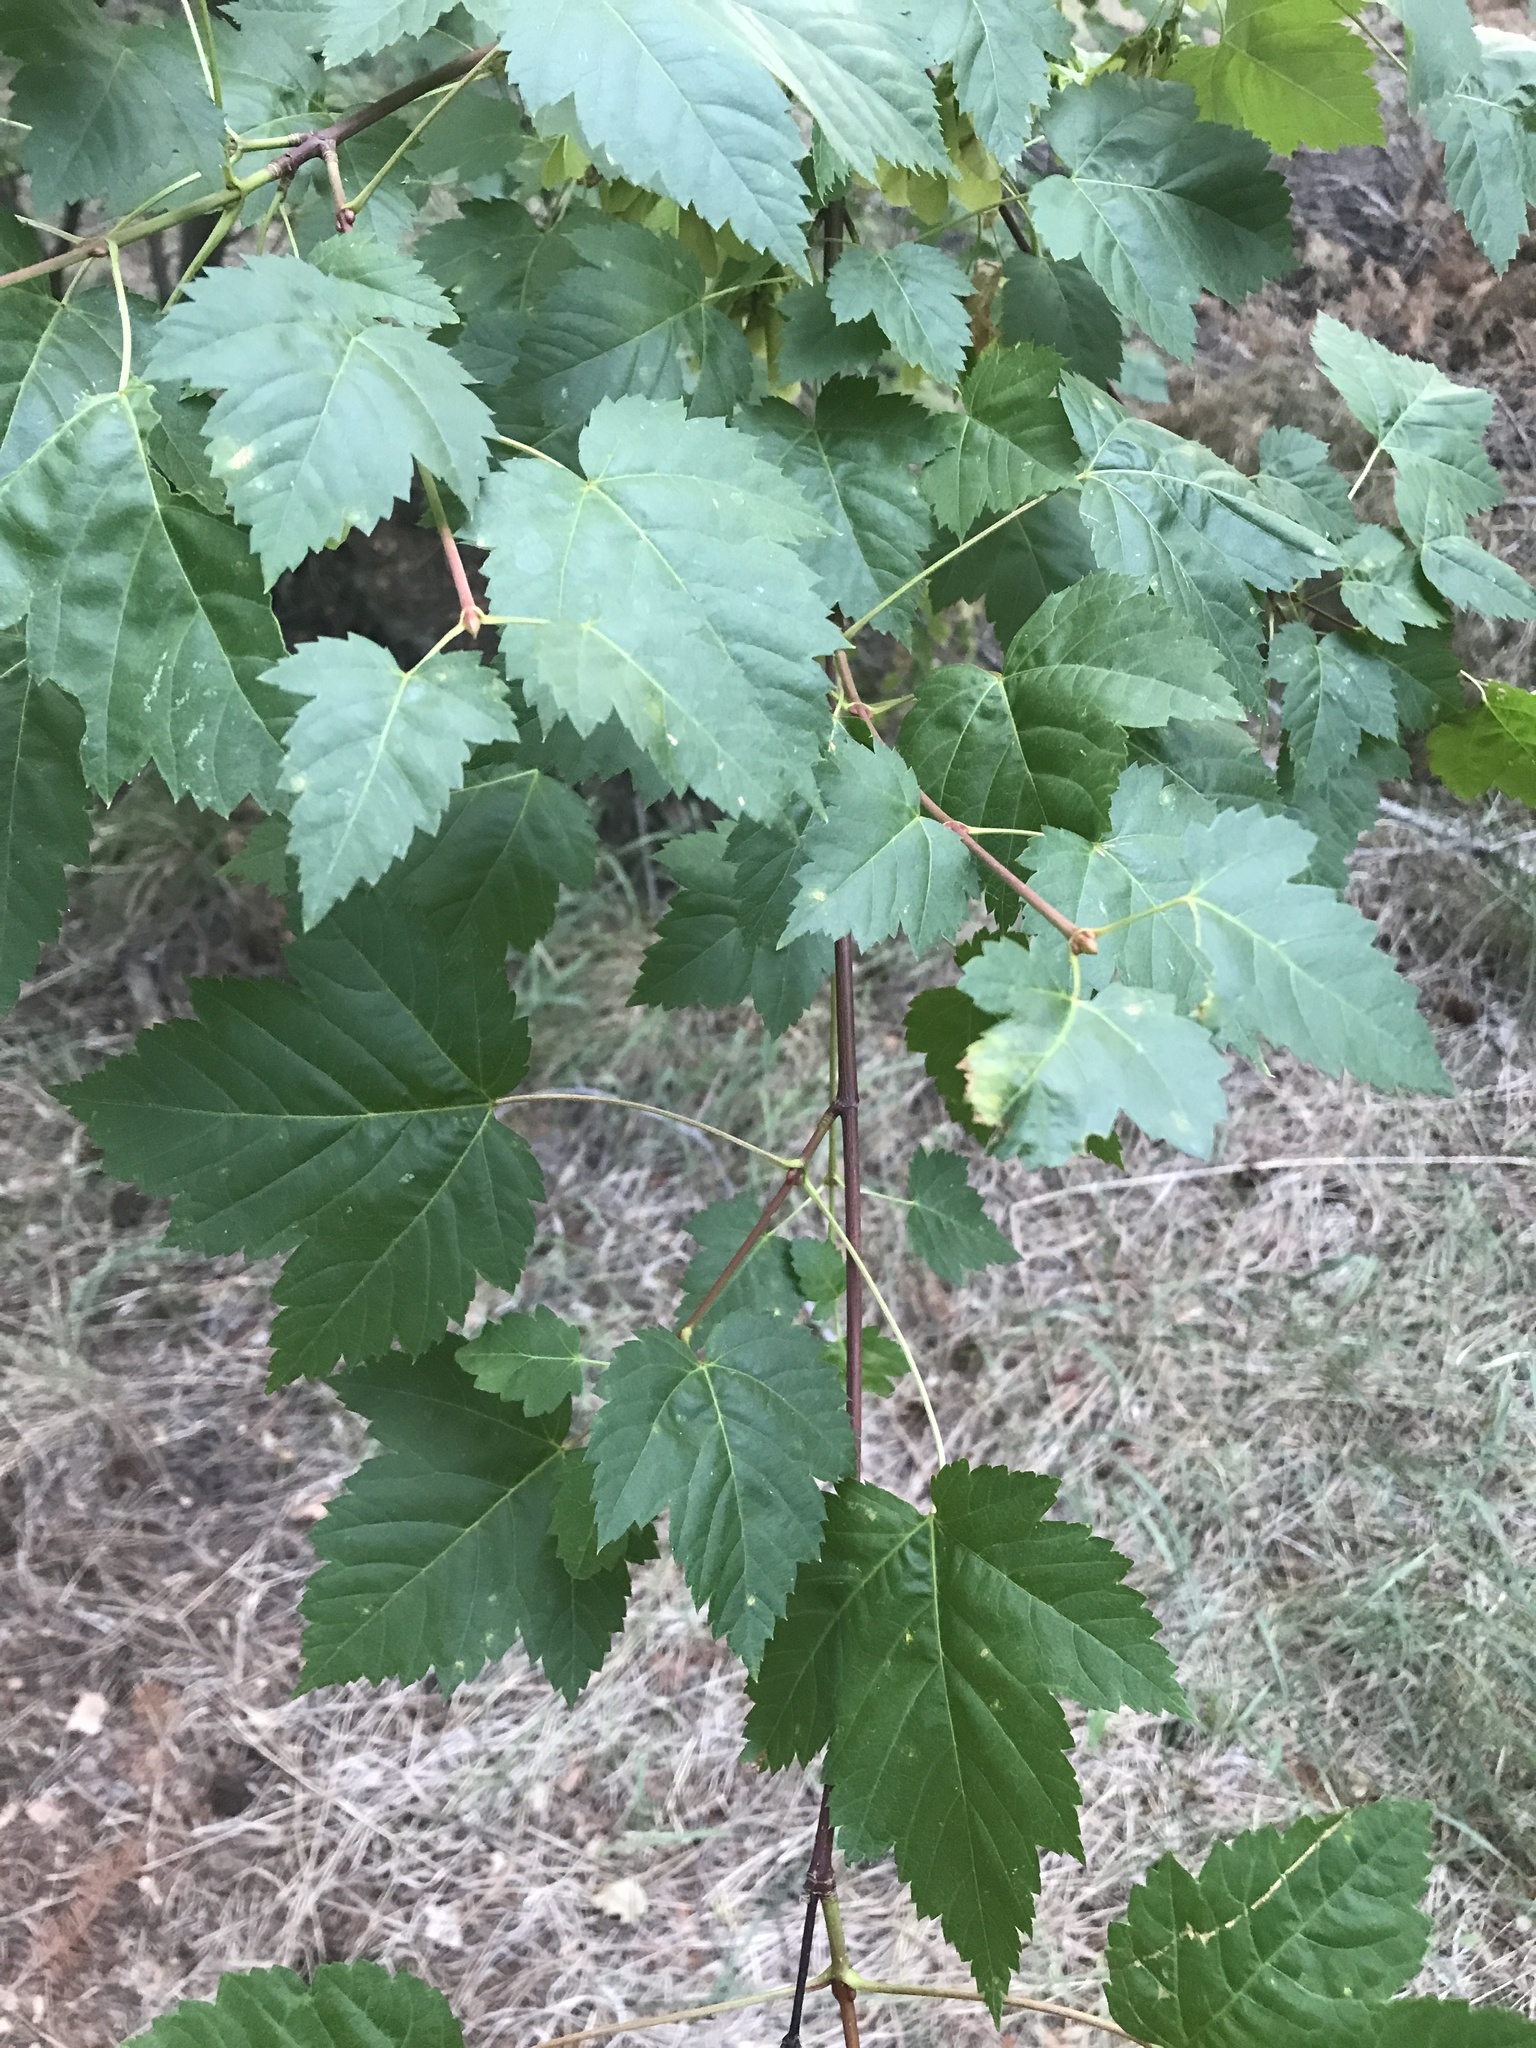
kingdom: Plantae
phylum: Tracheophyta
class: Magnoliopsida
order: Sapindales
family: Sapindaceae
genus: Acer
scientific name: Acer glabrum
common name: Rocky mountain maple
